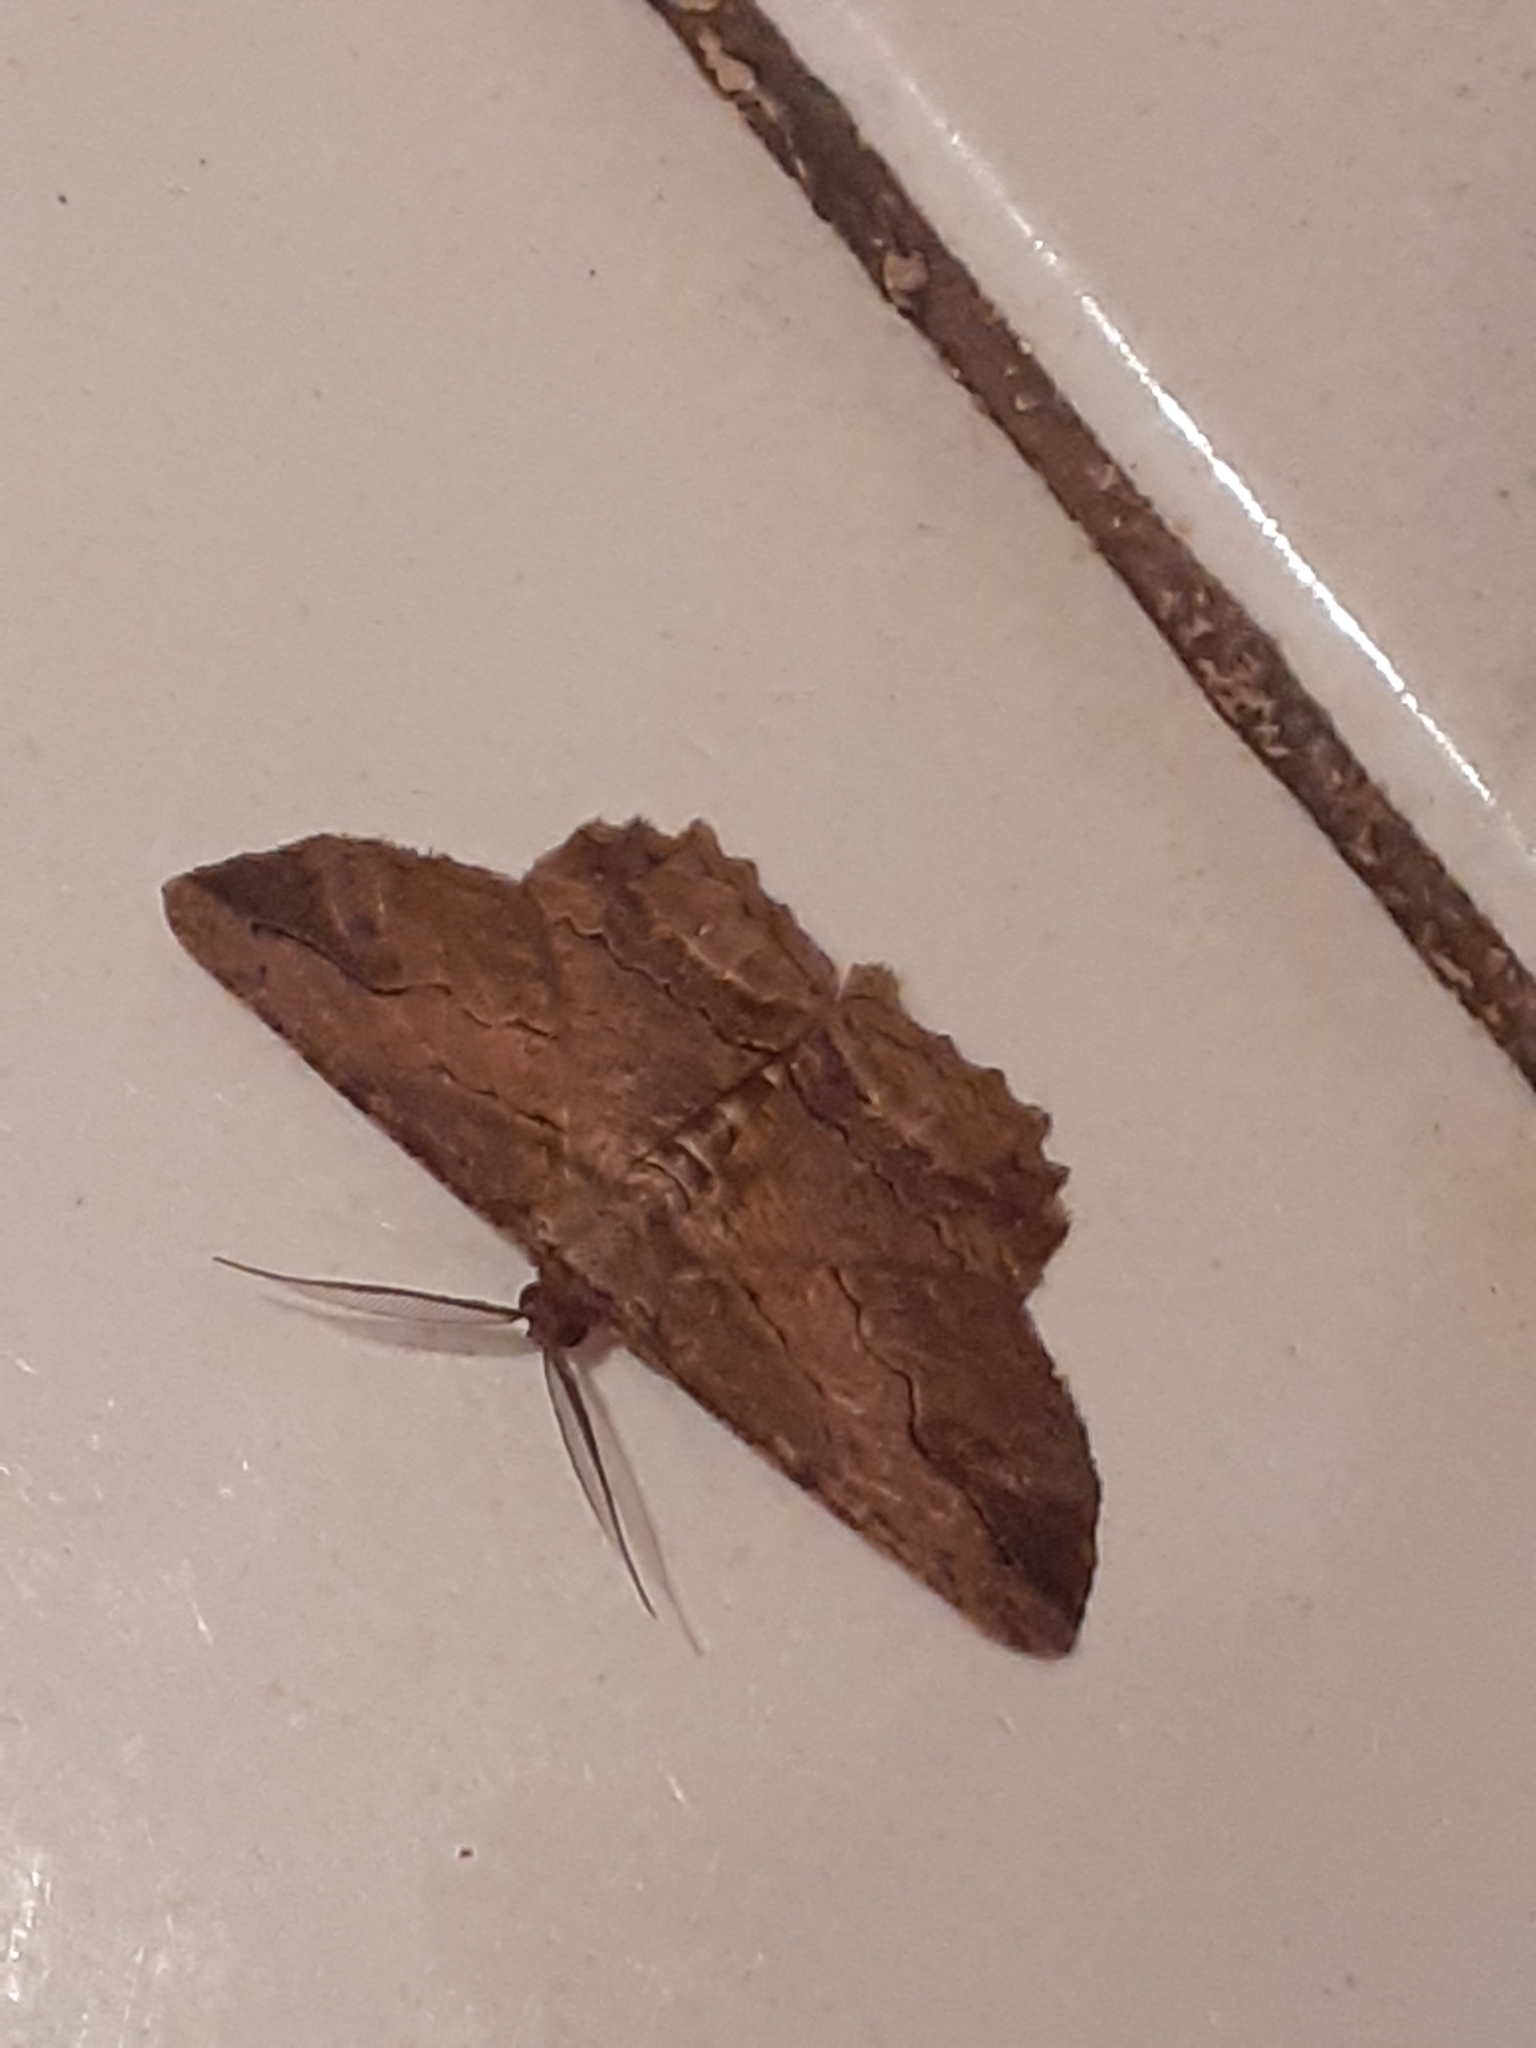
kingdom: Animalia
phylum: Arthropoda
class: Insecta
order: Lepidoptera
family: Geometridae
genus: Menophra
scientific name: Menophra abruptaria
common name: Waved umber
